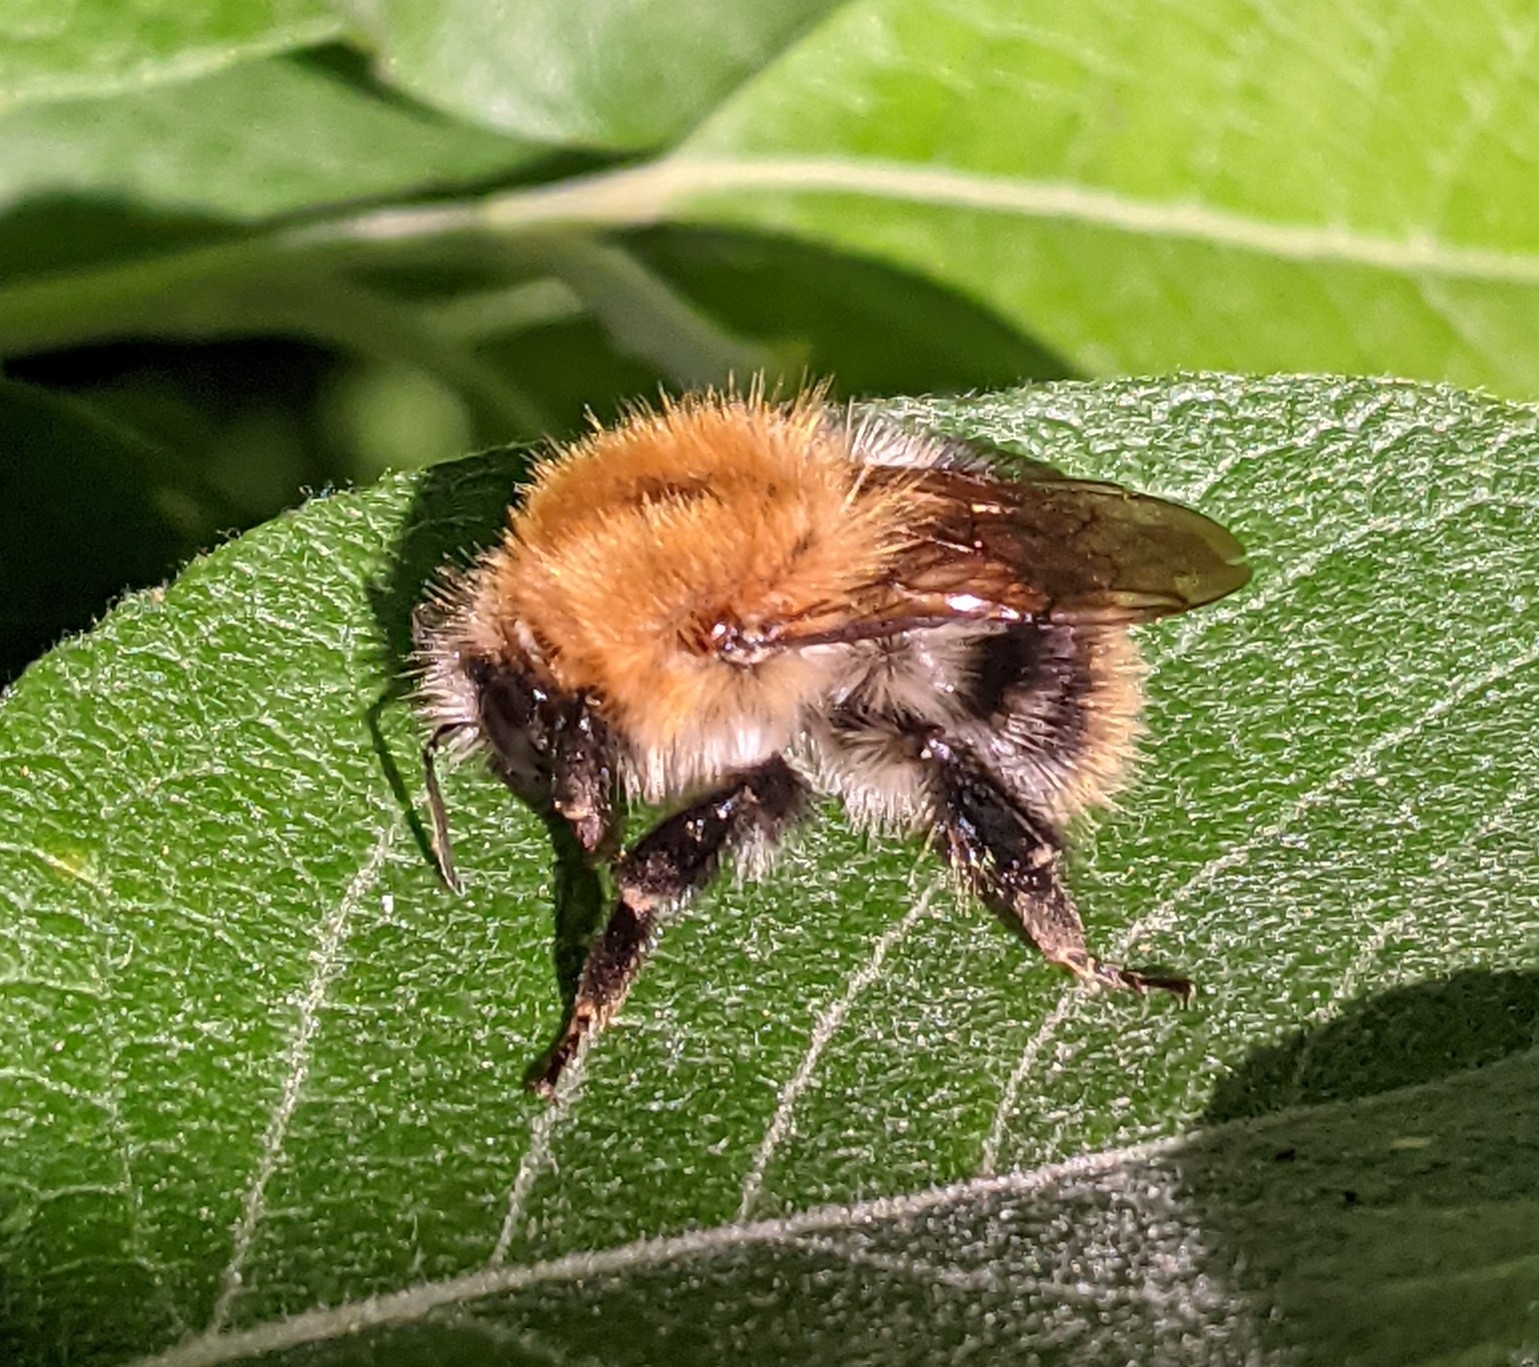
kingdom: Animalia
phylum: Arthropoda
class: Insecta
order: Hymenoptera
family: Apidae
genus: Bombus
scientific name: Bombus pascuorum
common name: Common carder bee
